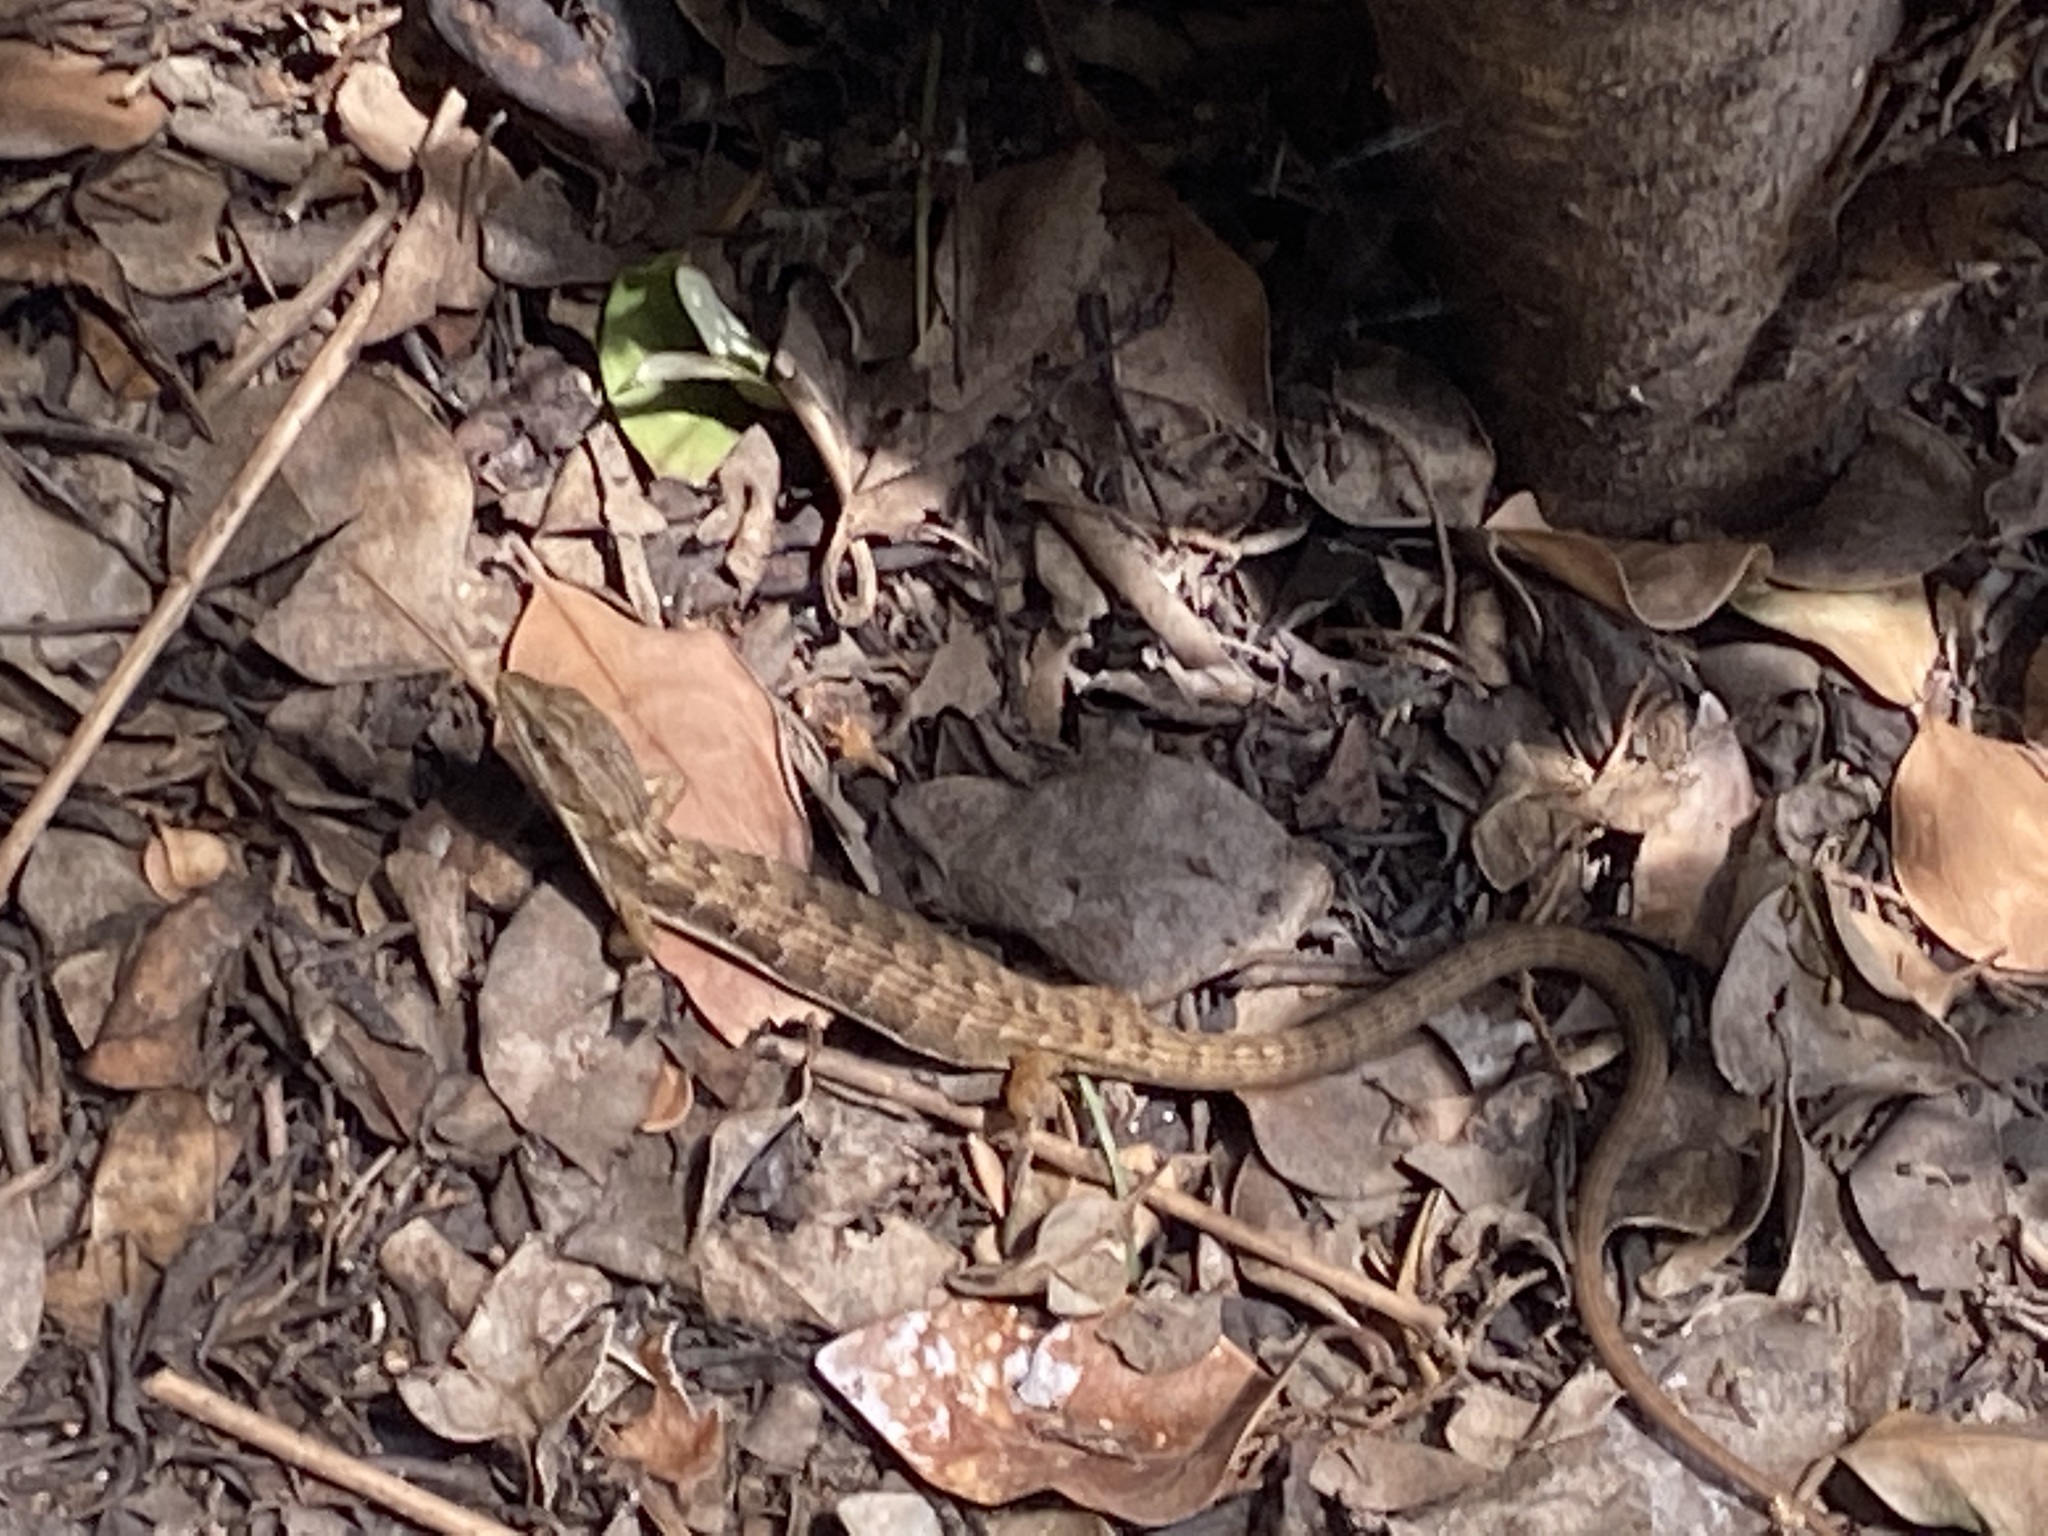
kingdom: Animalia
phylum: Chordata
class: Squamata
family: Anguidae
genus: Elgaria
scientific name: Elgaria multicarinata
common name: Southern alligator lizard
